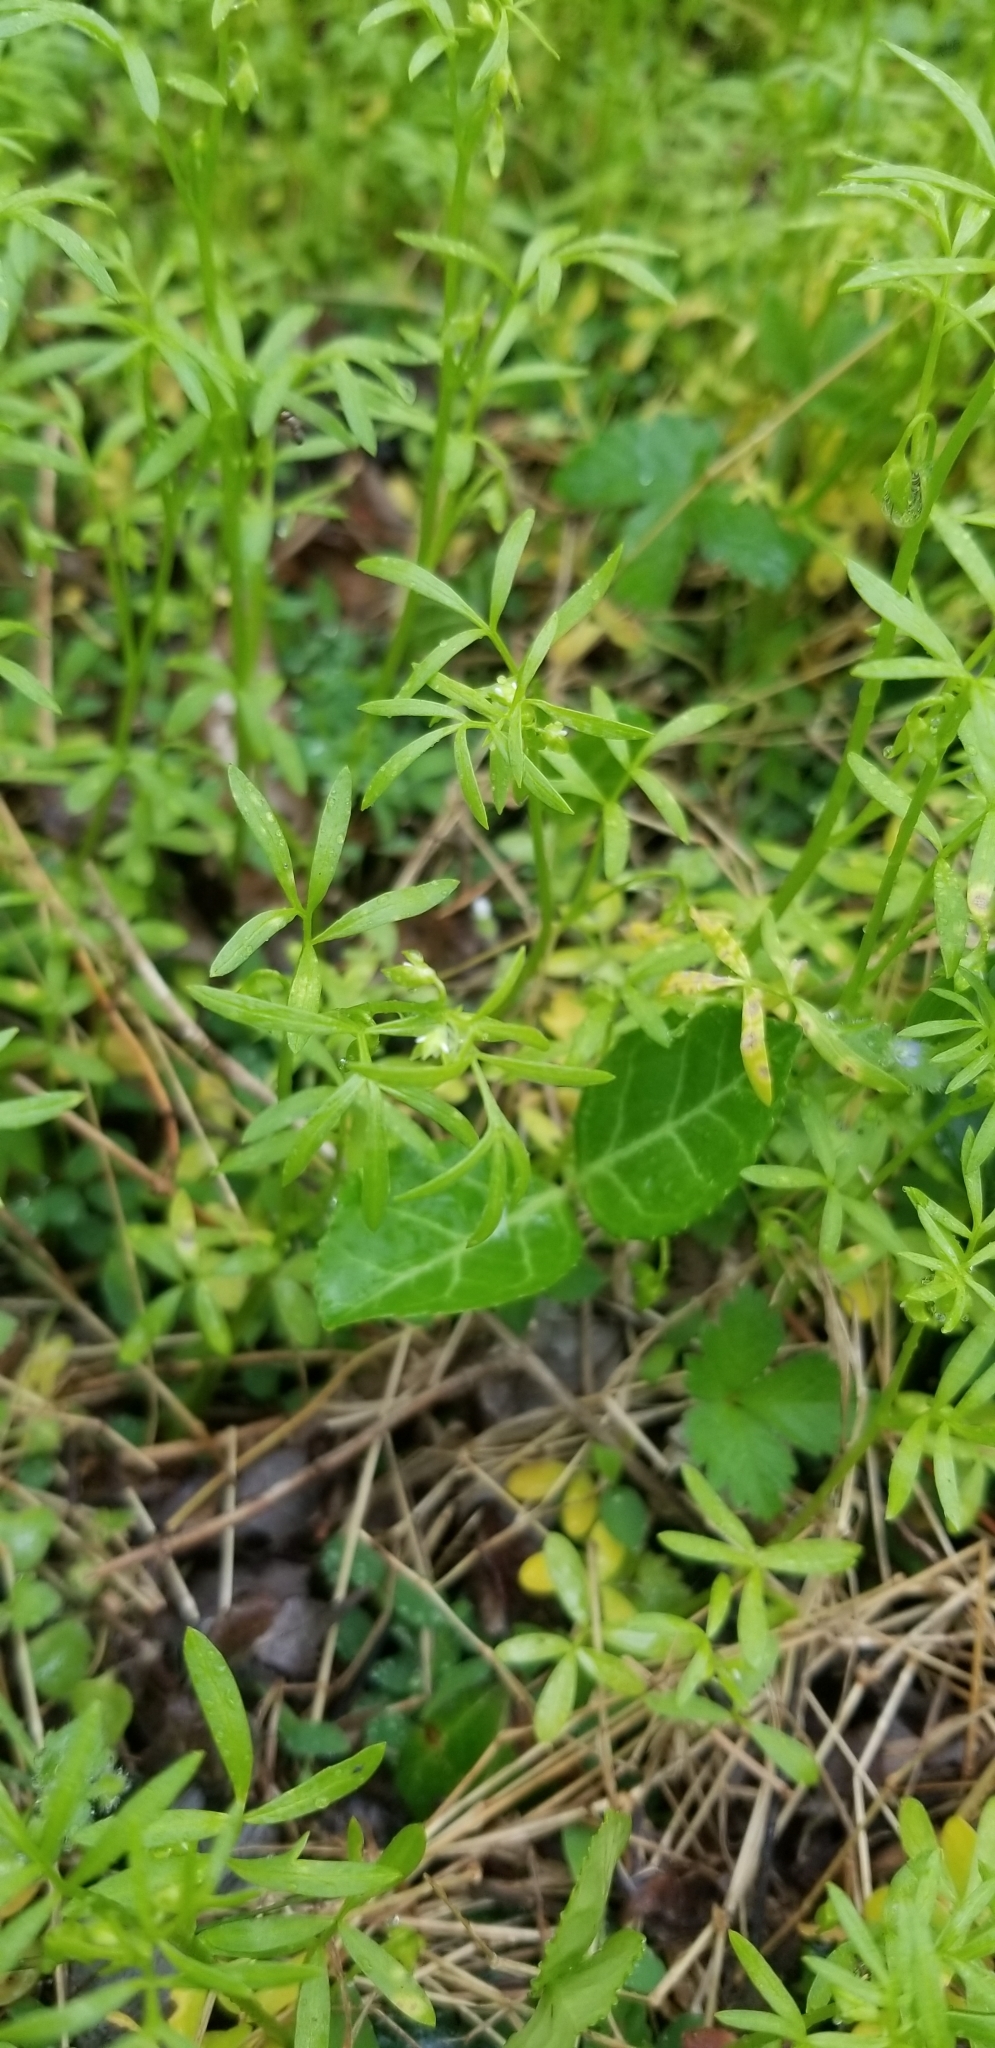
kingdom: Plantae
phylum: Tracheophyta
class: Magnoliopsida
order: Brassicales
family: Limnanthaceae
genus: Floerkea
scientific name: Floerkea proserpinacoides
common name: False mermaid
